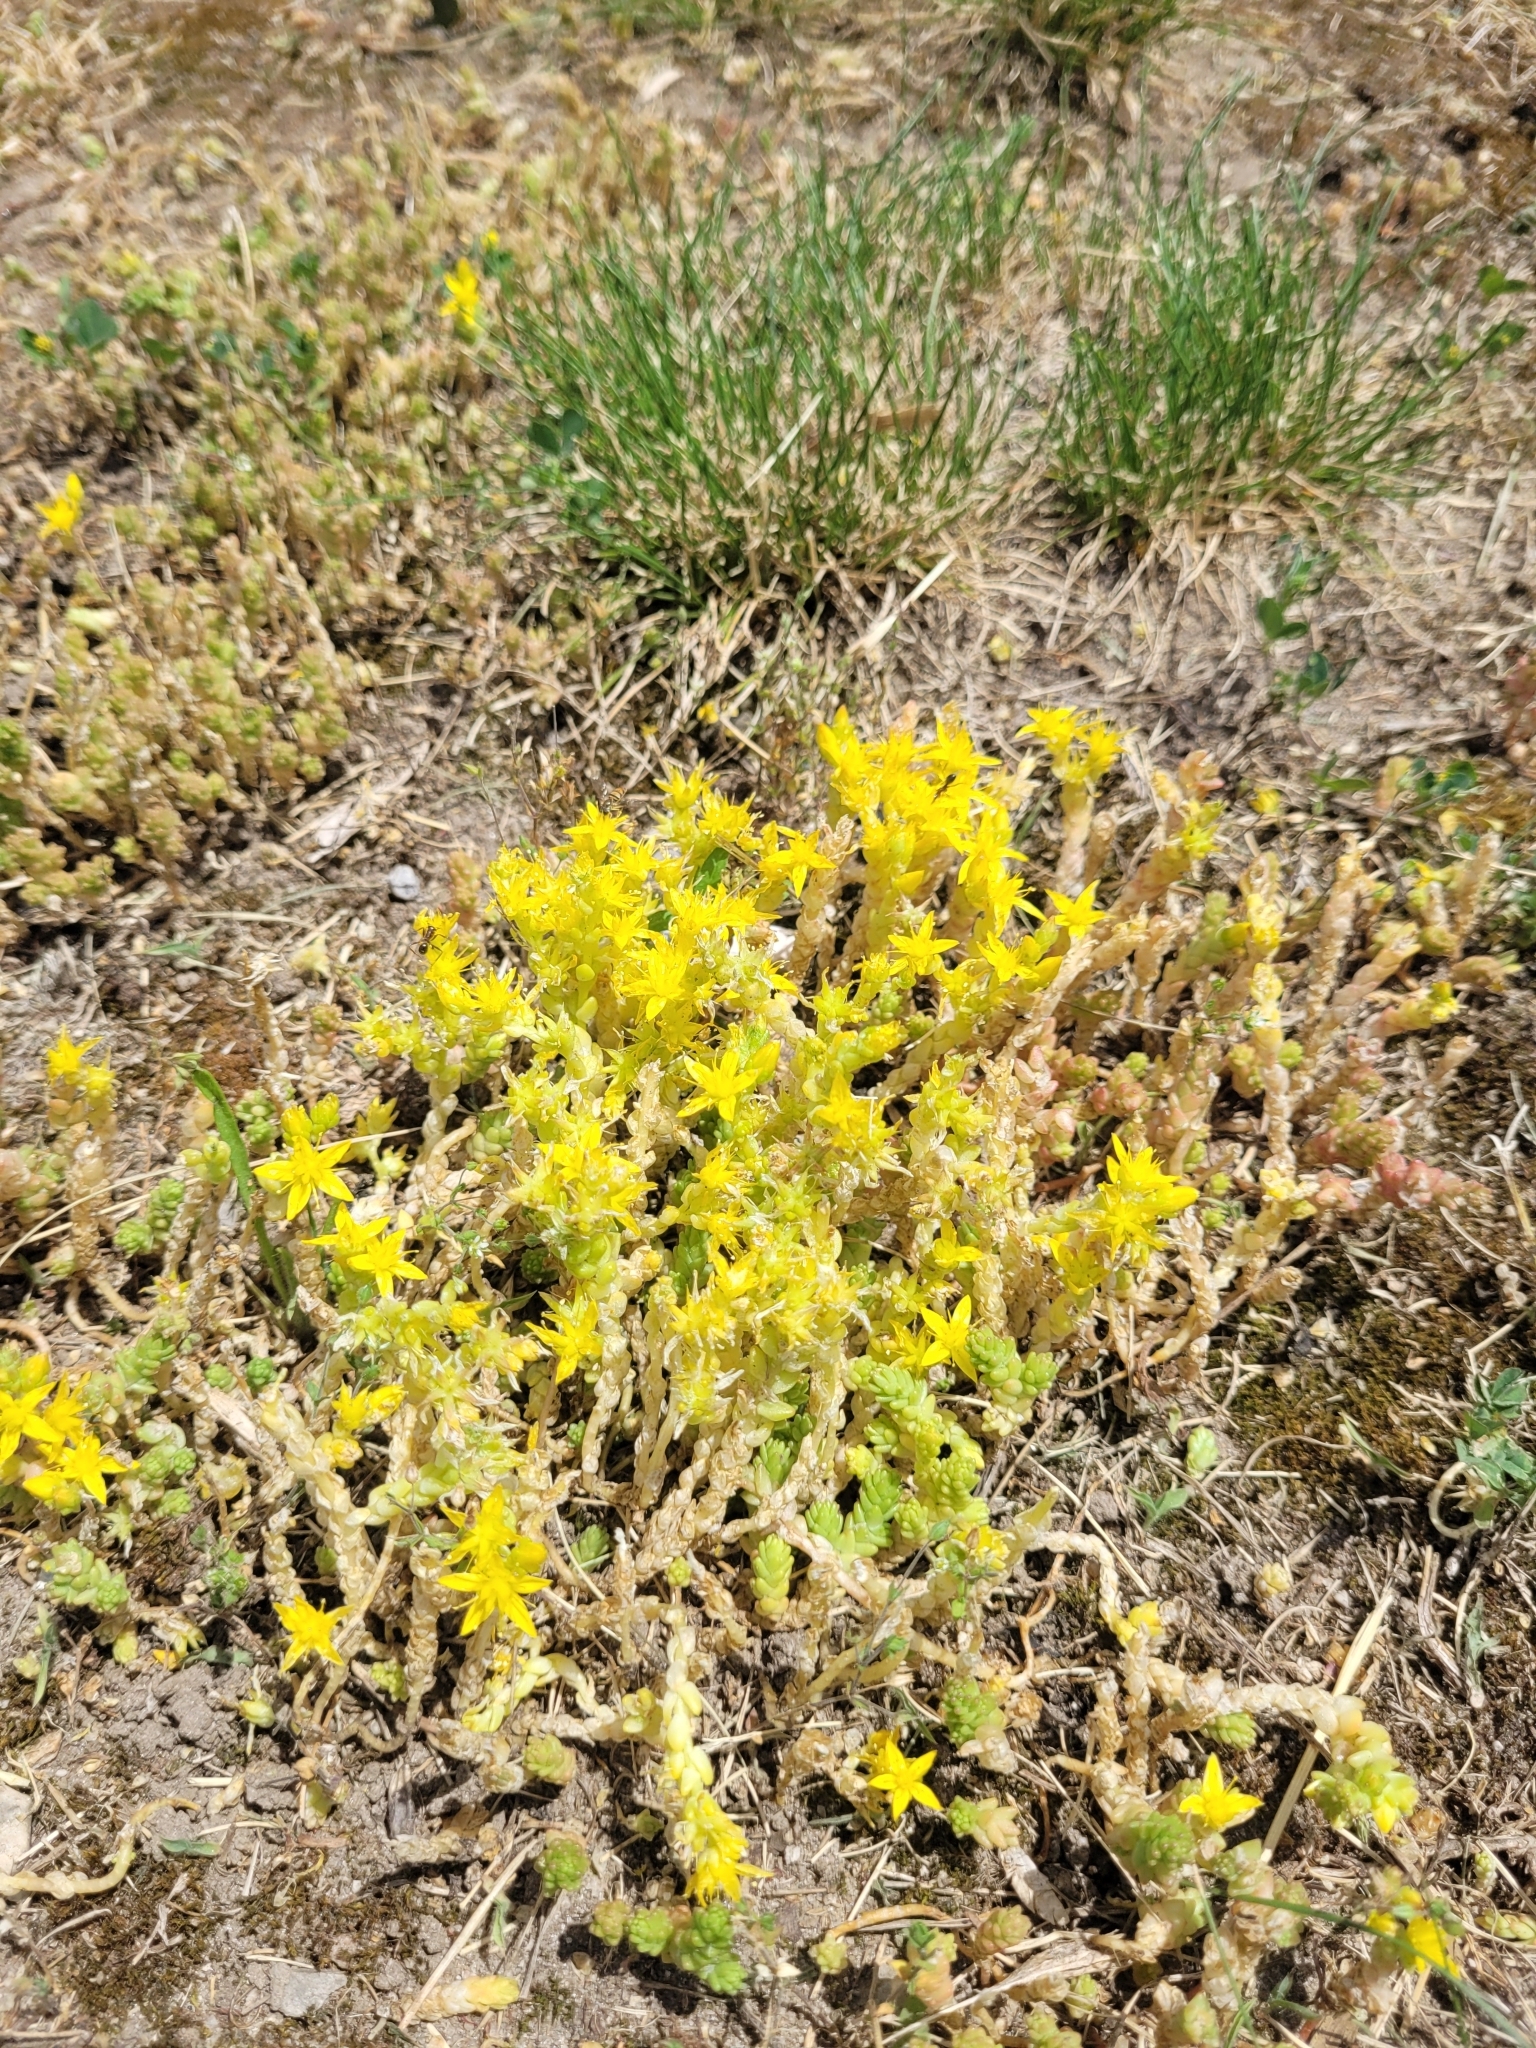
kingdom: Plantae
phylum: Tracheophyta
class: Magnoliopsida
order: Saxifragales
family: Crassulaceae
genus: Sedum
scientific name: Sedum acre
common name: Biting stonecrop
